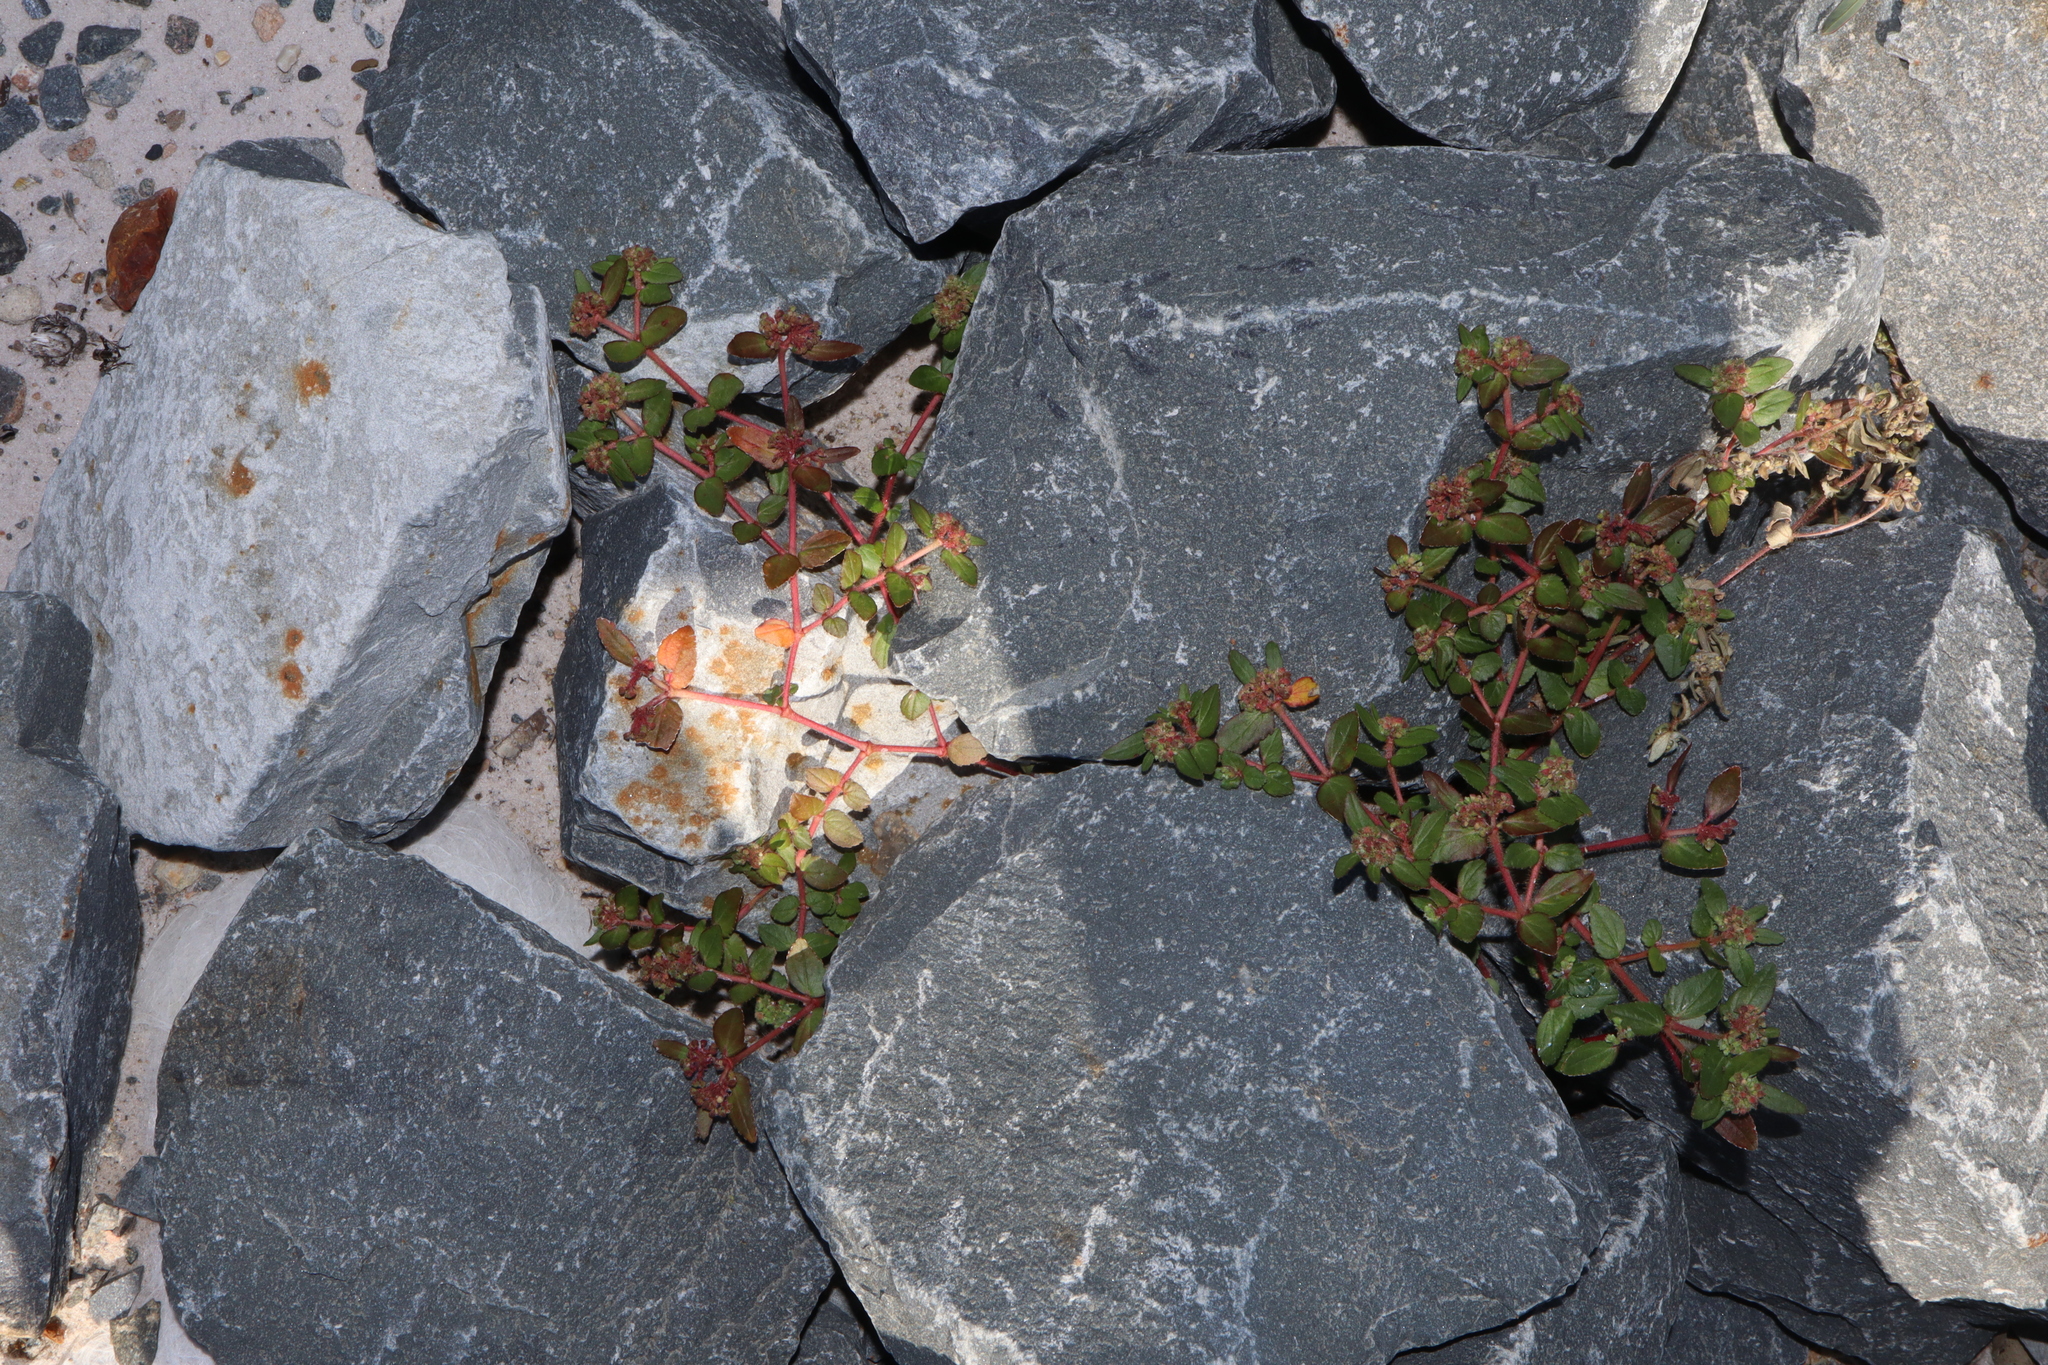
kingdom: Plantae
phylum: Tracheophyta
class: Magnoliopsida
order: Malpighiales
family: Euphorbiaceae
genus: Euphorbia
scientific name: Euphorbia ophthalmica
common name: Florida hammock sandmat
